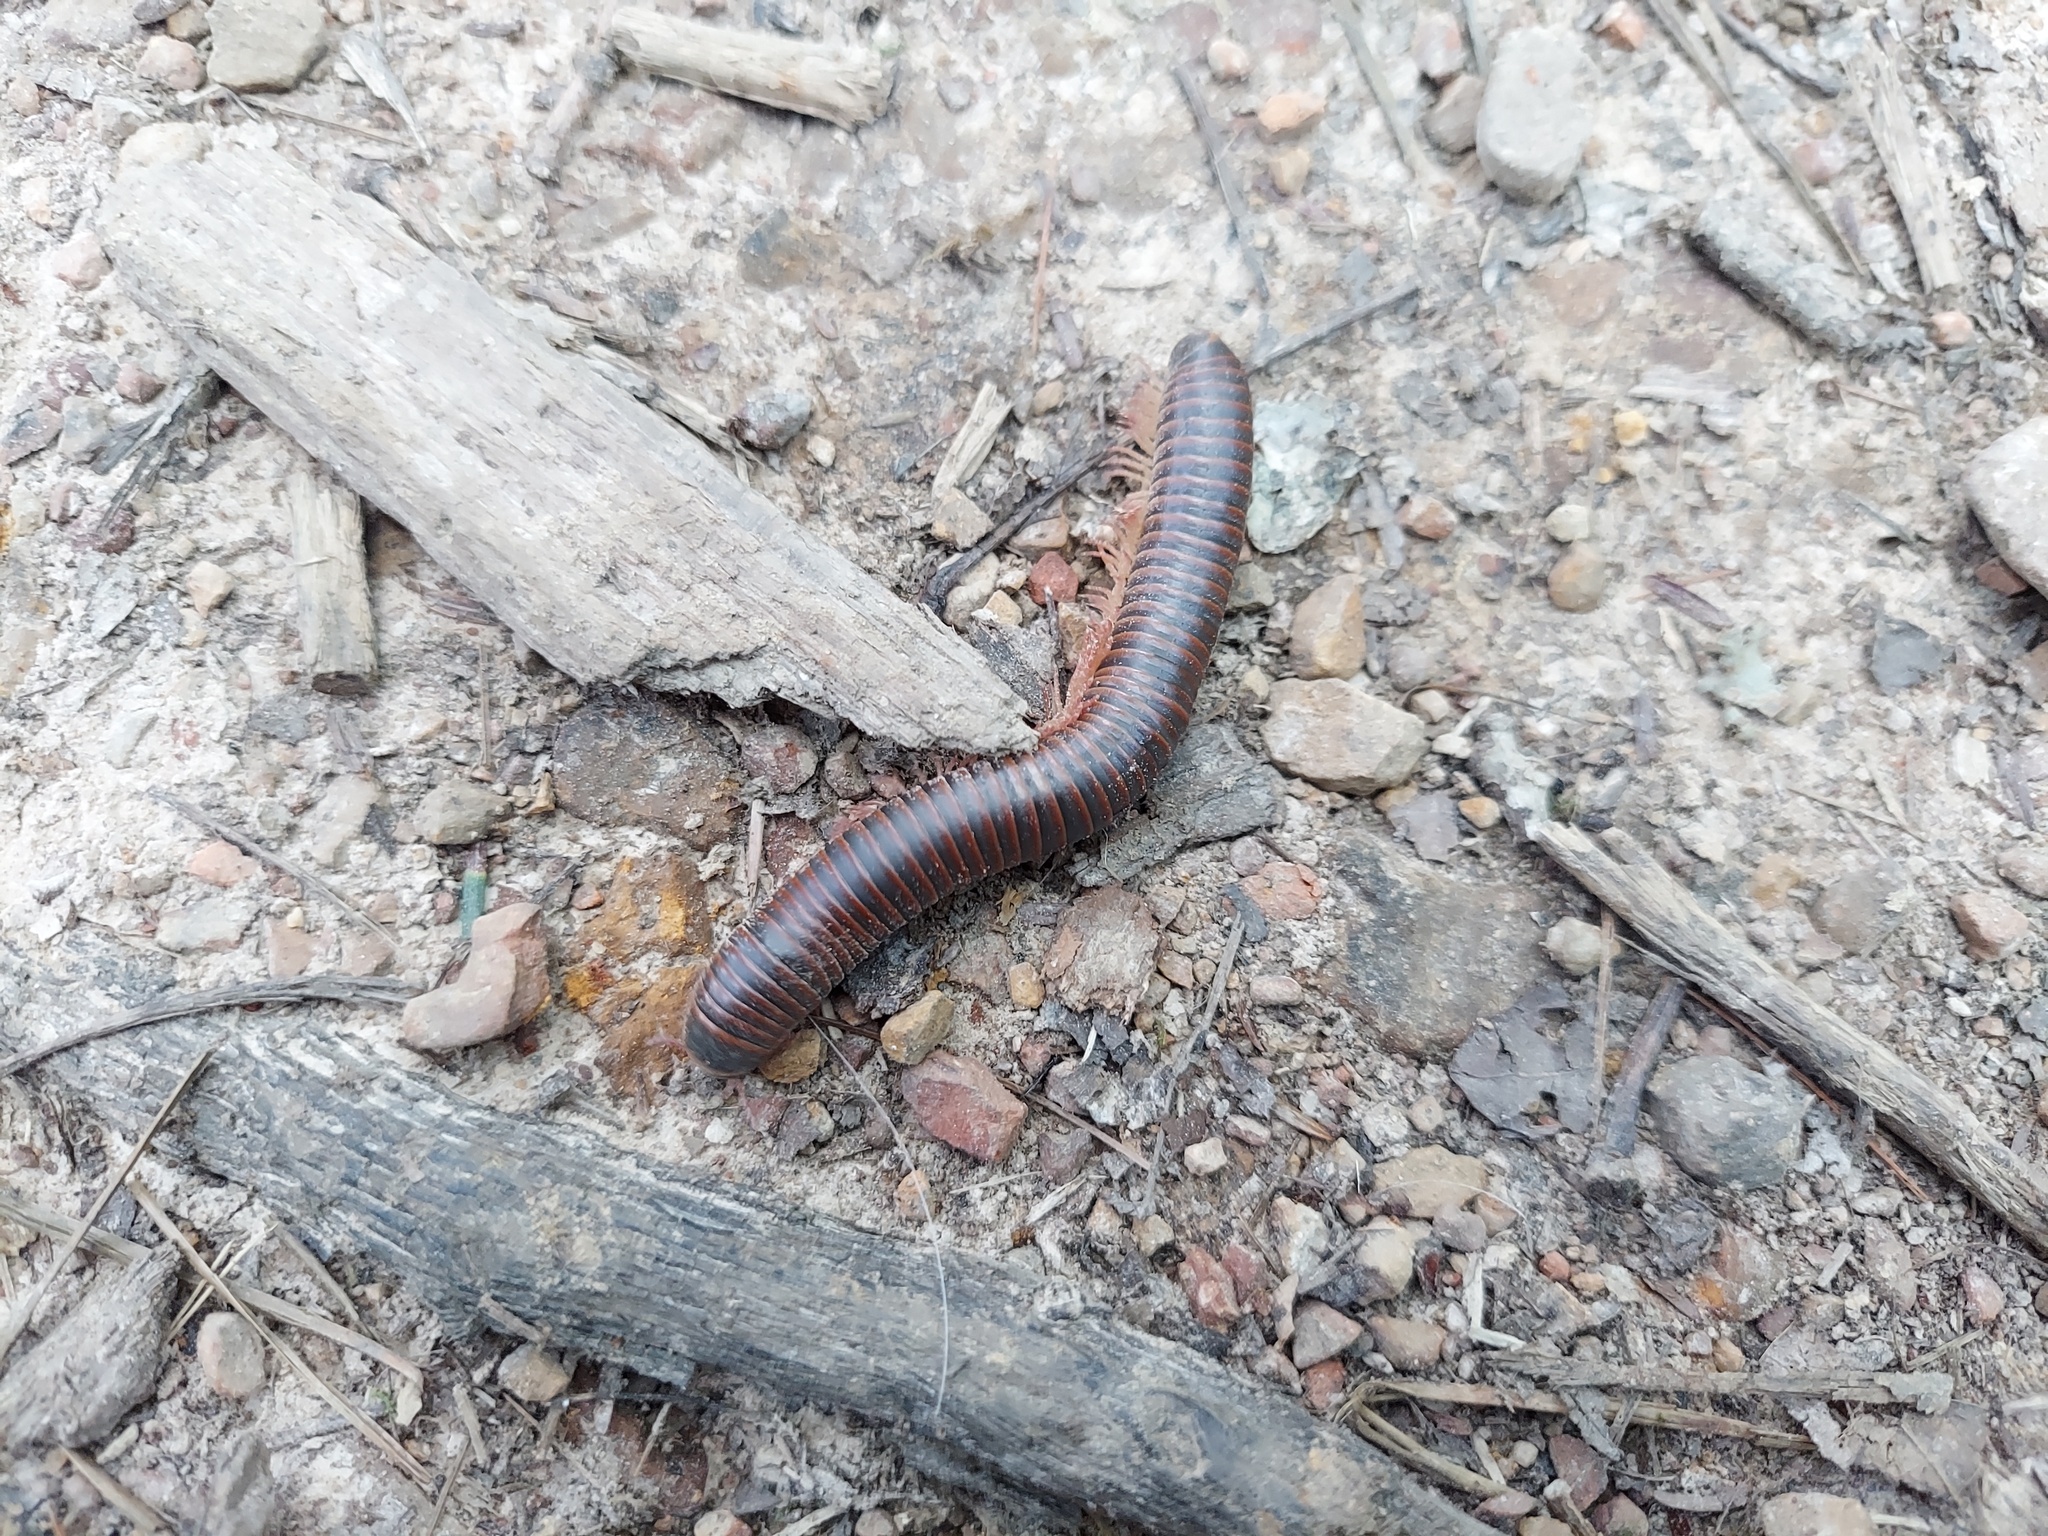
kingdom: Animalia
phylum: Arthropoda
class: Diplopoda
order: Spirobolida
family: Spirobolidae
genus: Narceus
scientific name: Narceus
